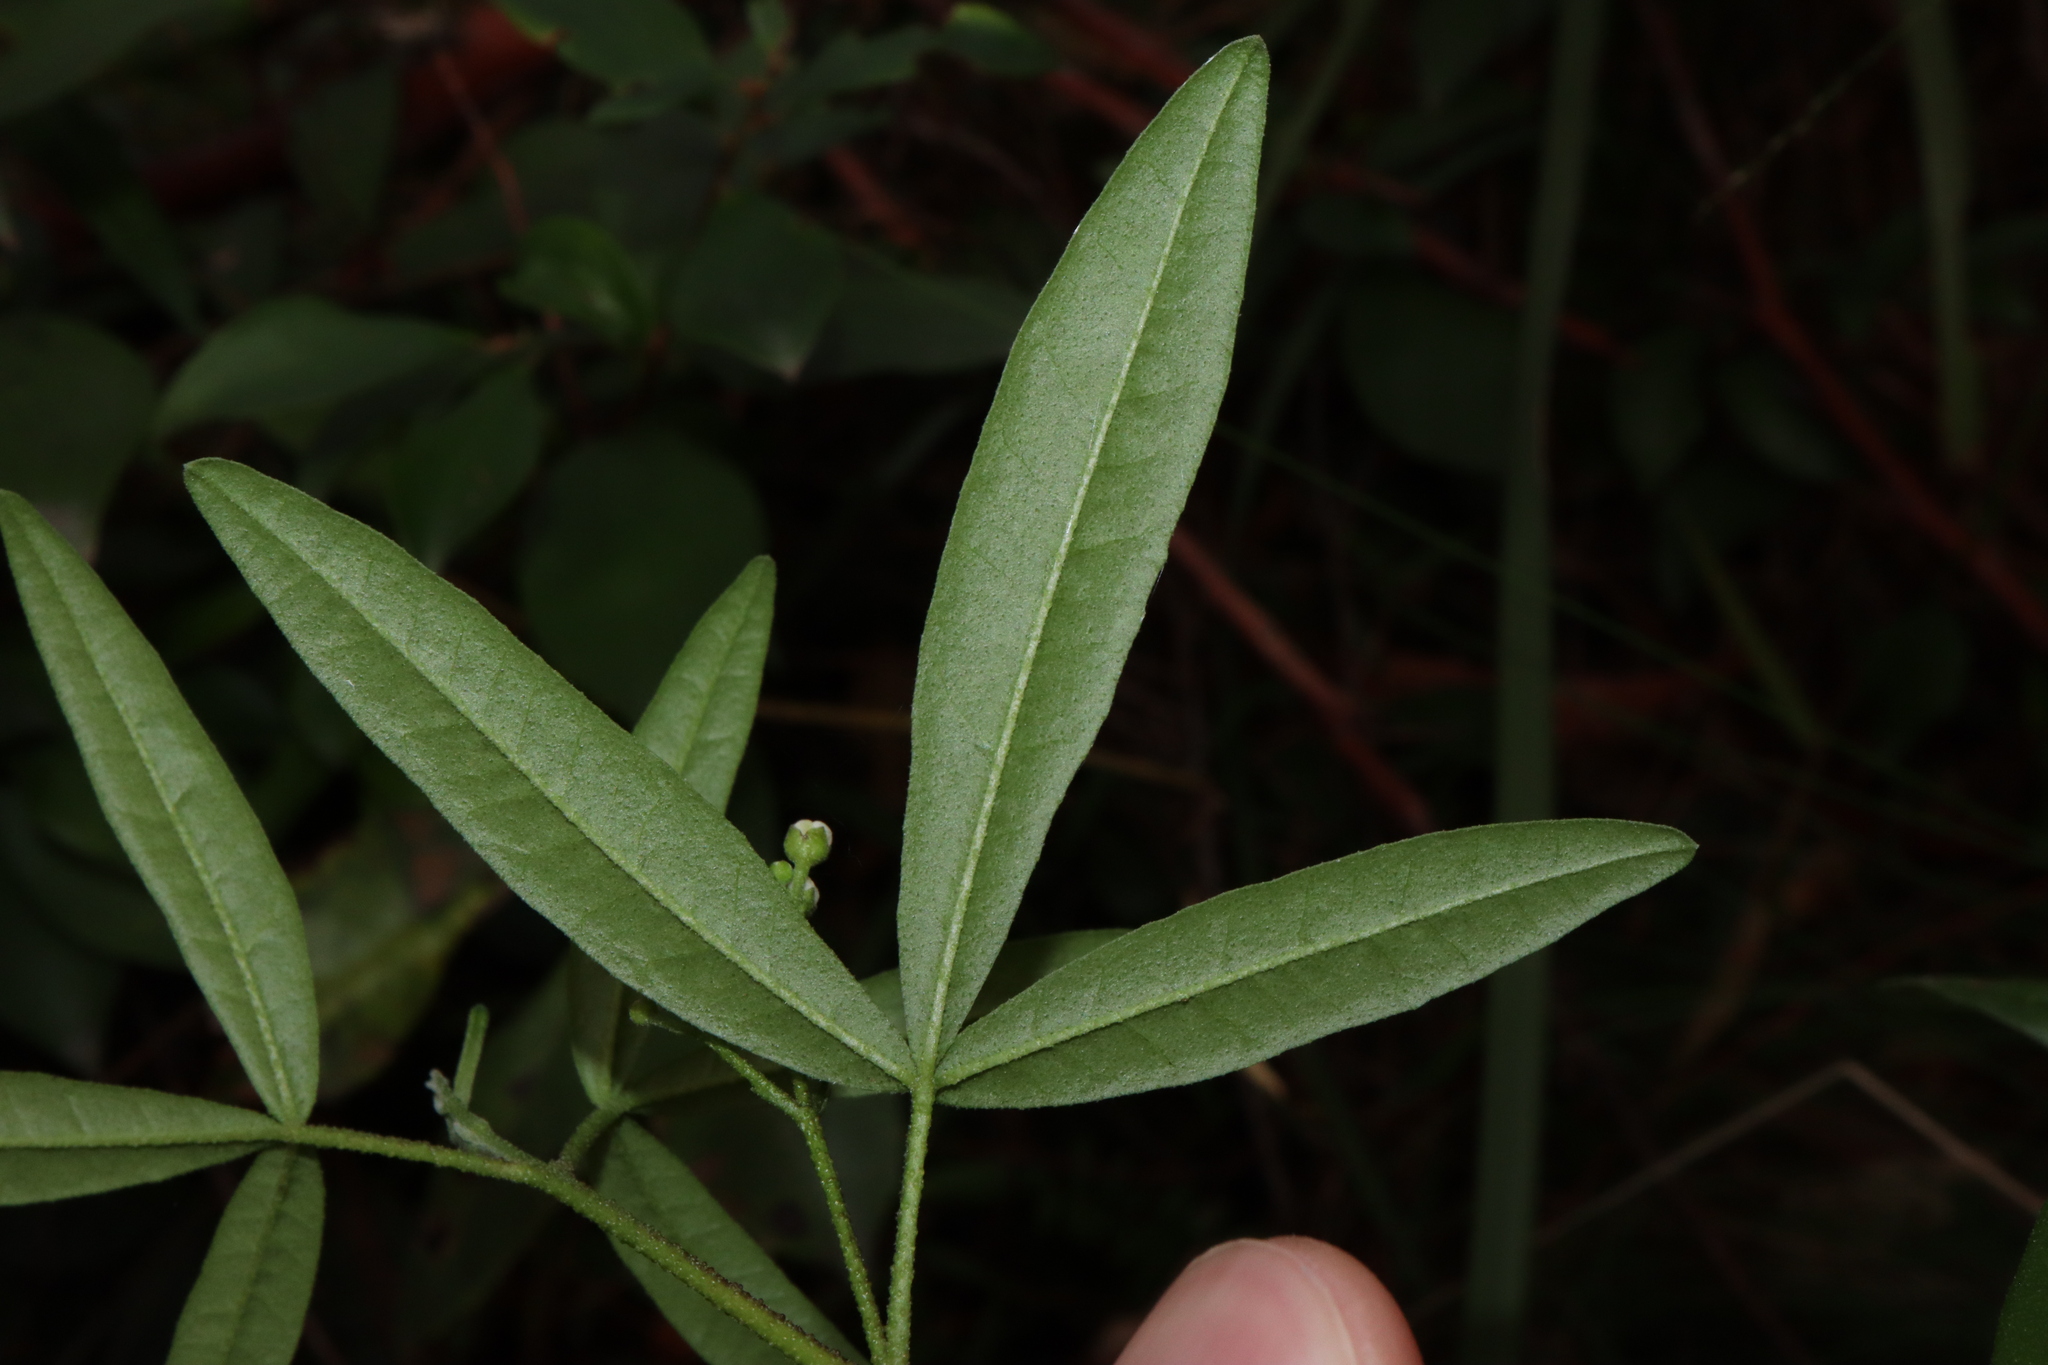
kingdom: Plantae
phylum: Tracheophyta
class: Magnoliopsida
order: Sapindales
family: Rutaceae
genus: Zieria
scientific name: Zieria smithii
